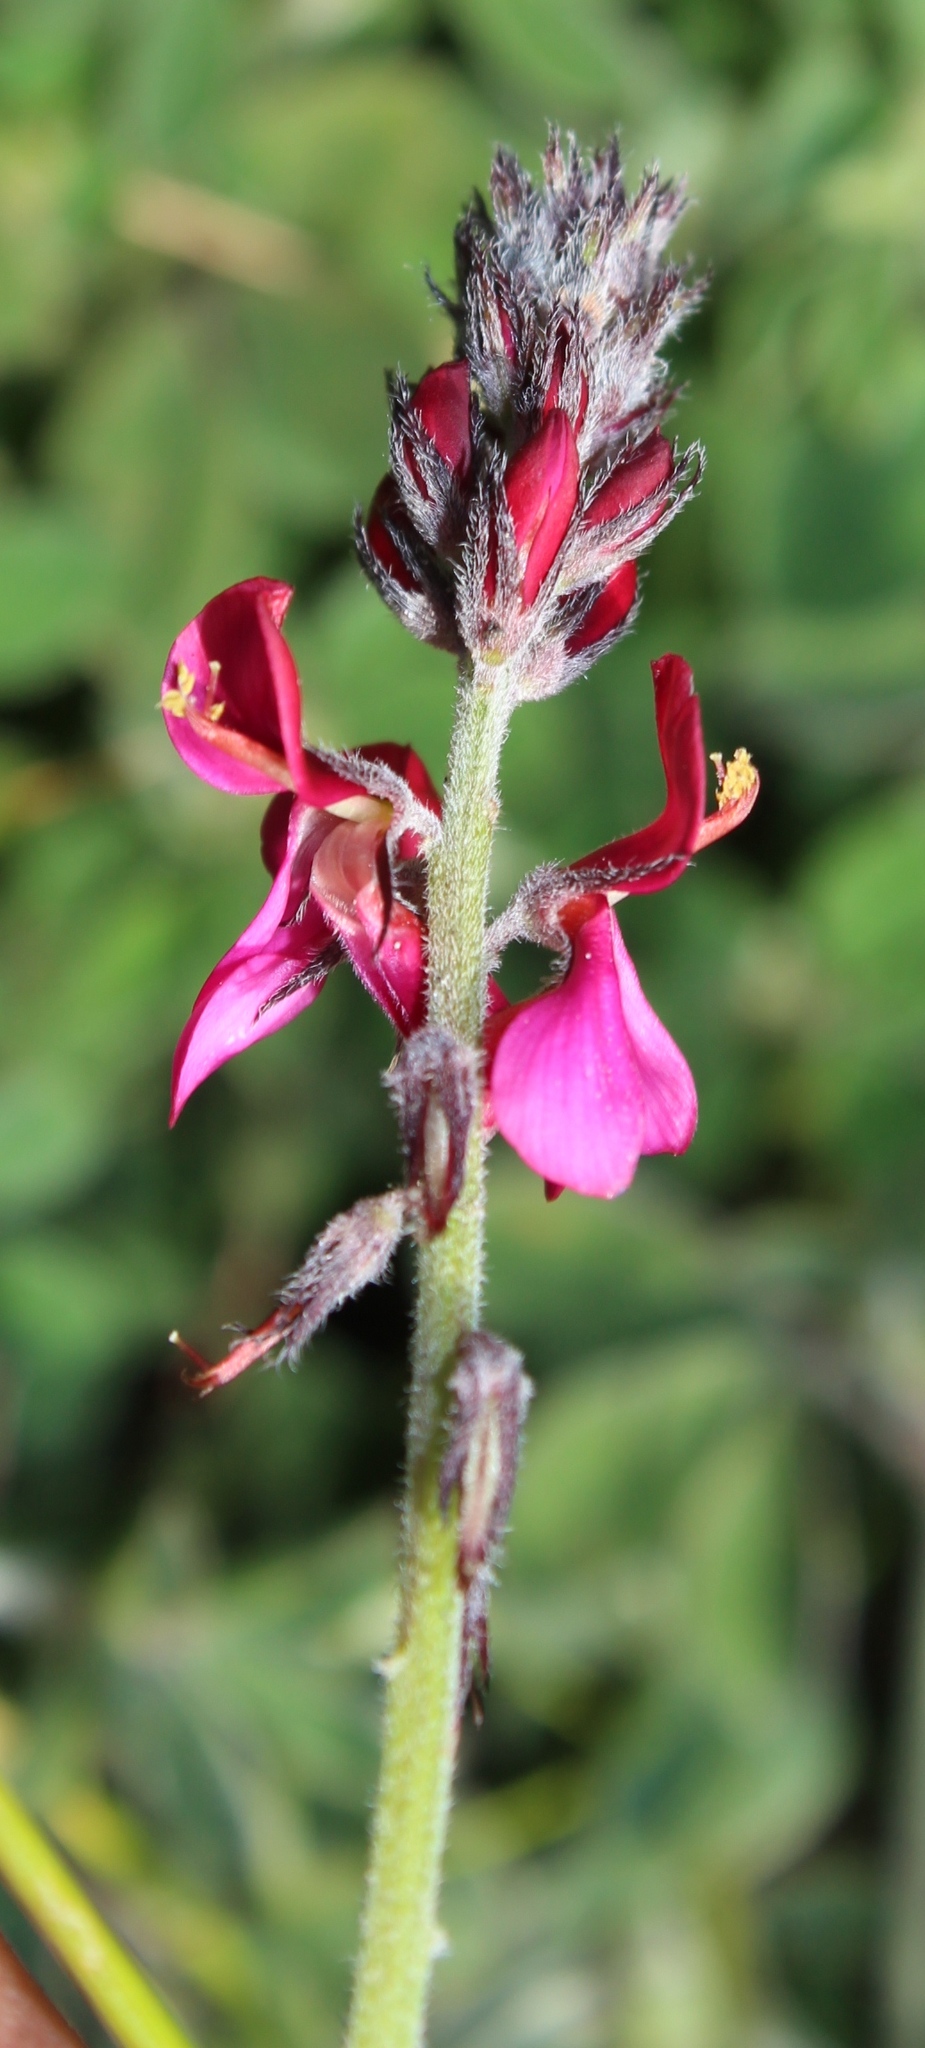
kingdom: Plantae
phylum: Tracheophyta
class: Magnoliopsida
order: Fabales
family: Fabaceae
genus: Indigofera
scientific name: Indigofera incana
